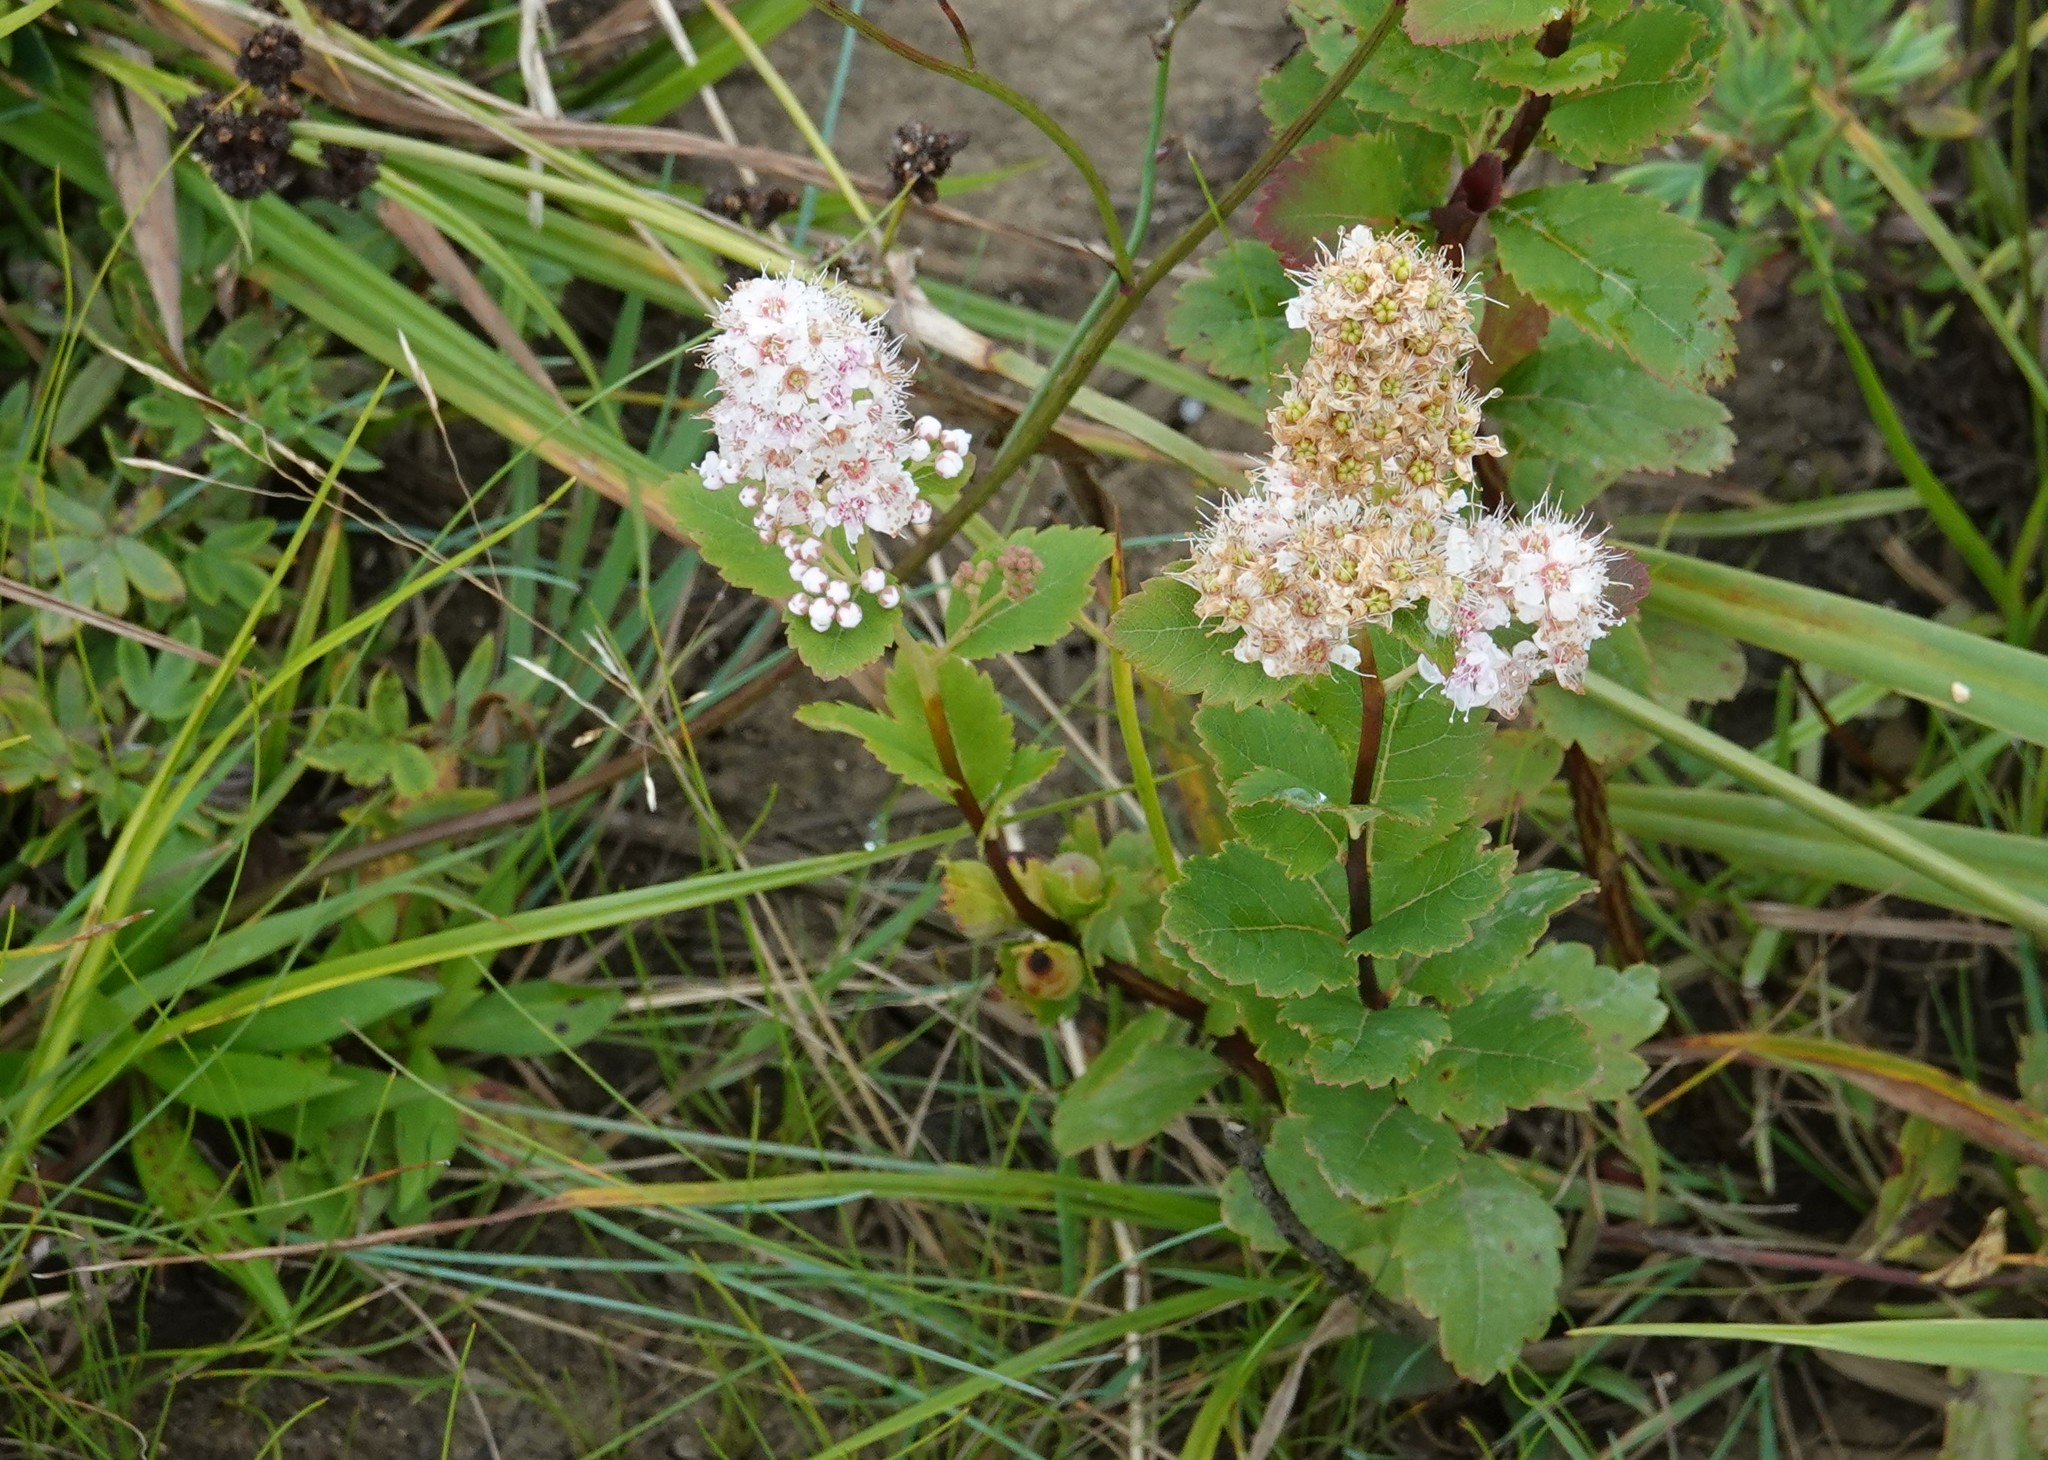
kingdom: Plantae
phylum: Tracheophyta
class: Magnoliopsida
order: Rosales
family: Rosaceae
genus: Spiraea
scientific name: Spiraea alba
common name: Pale bridewort
